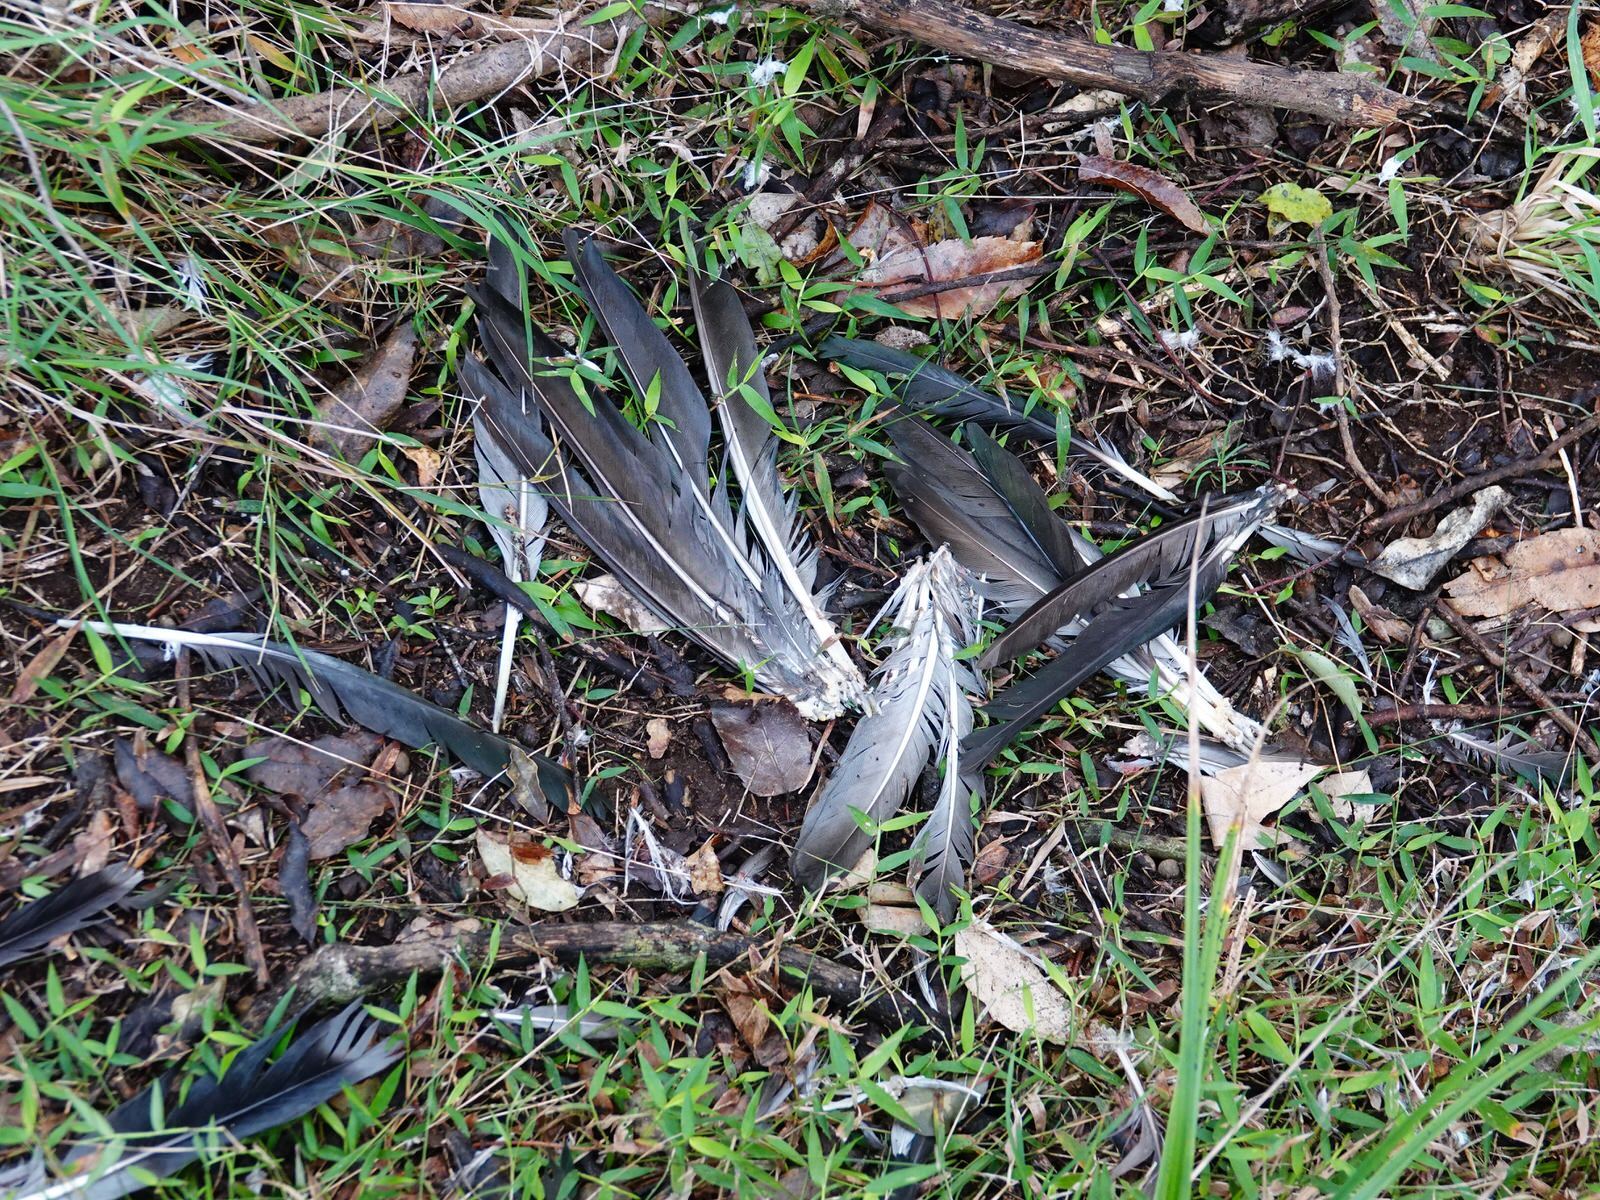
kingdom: Animalia
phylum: Chordata
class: Aves
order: Columbiformes
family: Columbidae
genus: Hemiphaga
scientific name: Hemiphaga novaeseelandiae
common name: New zealand pigeon
